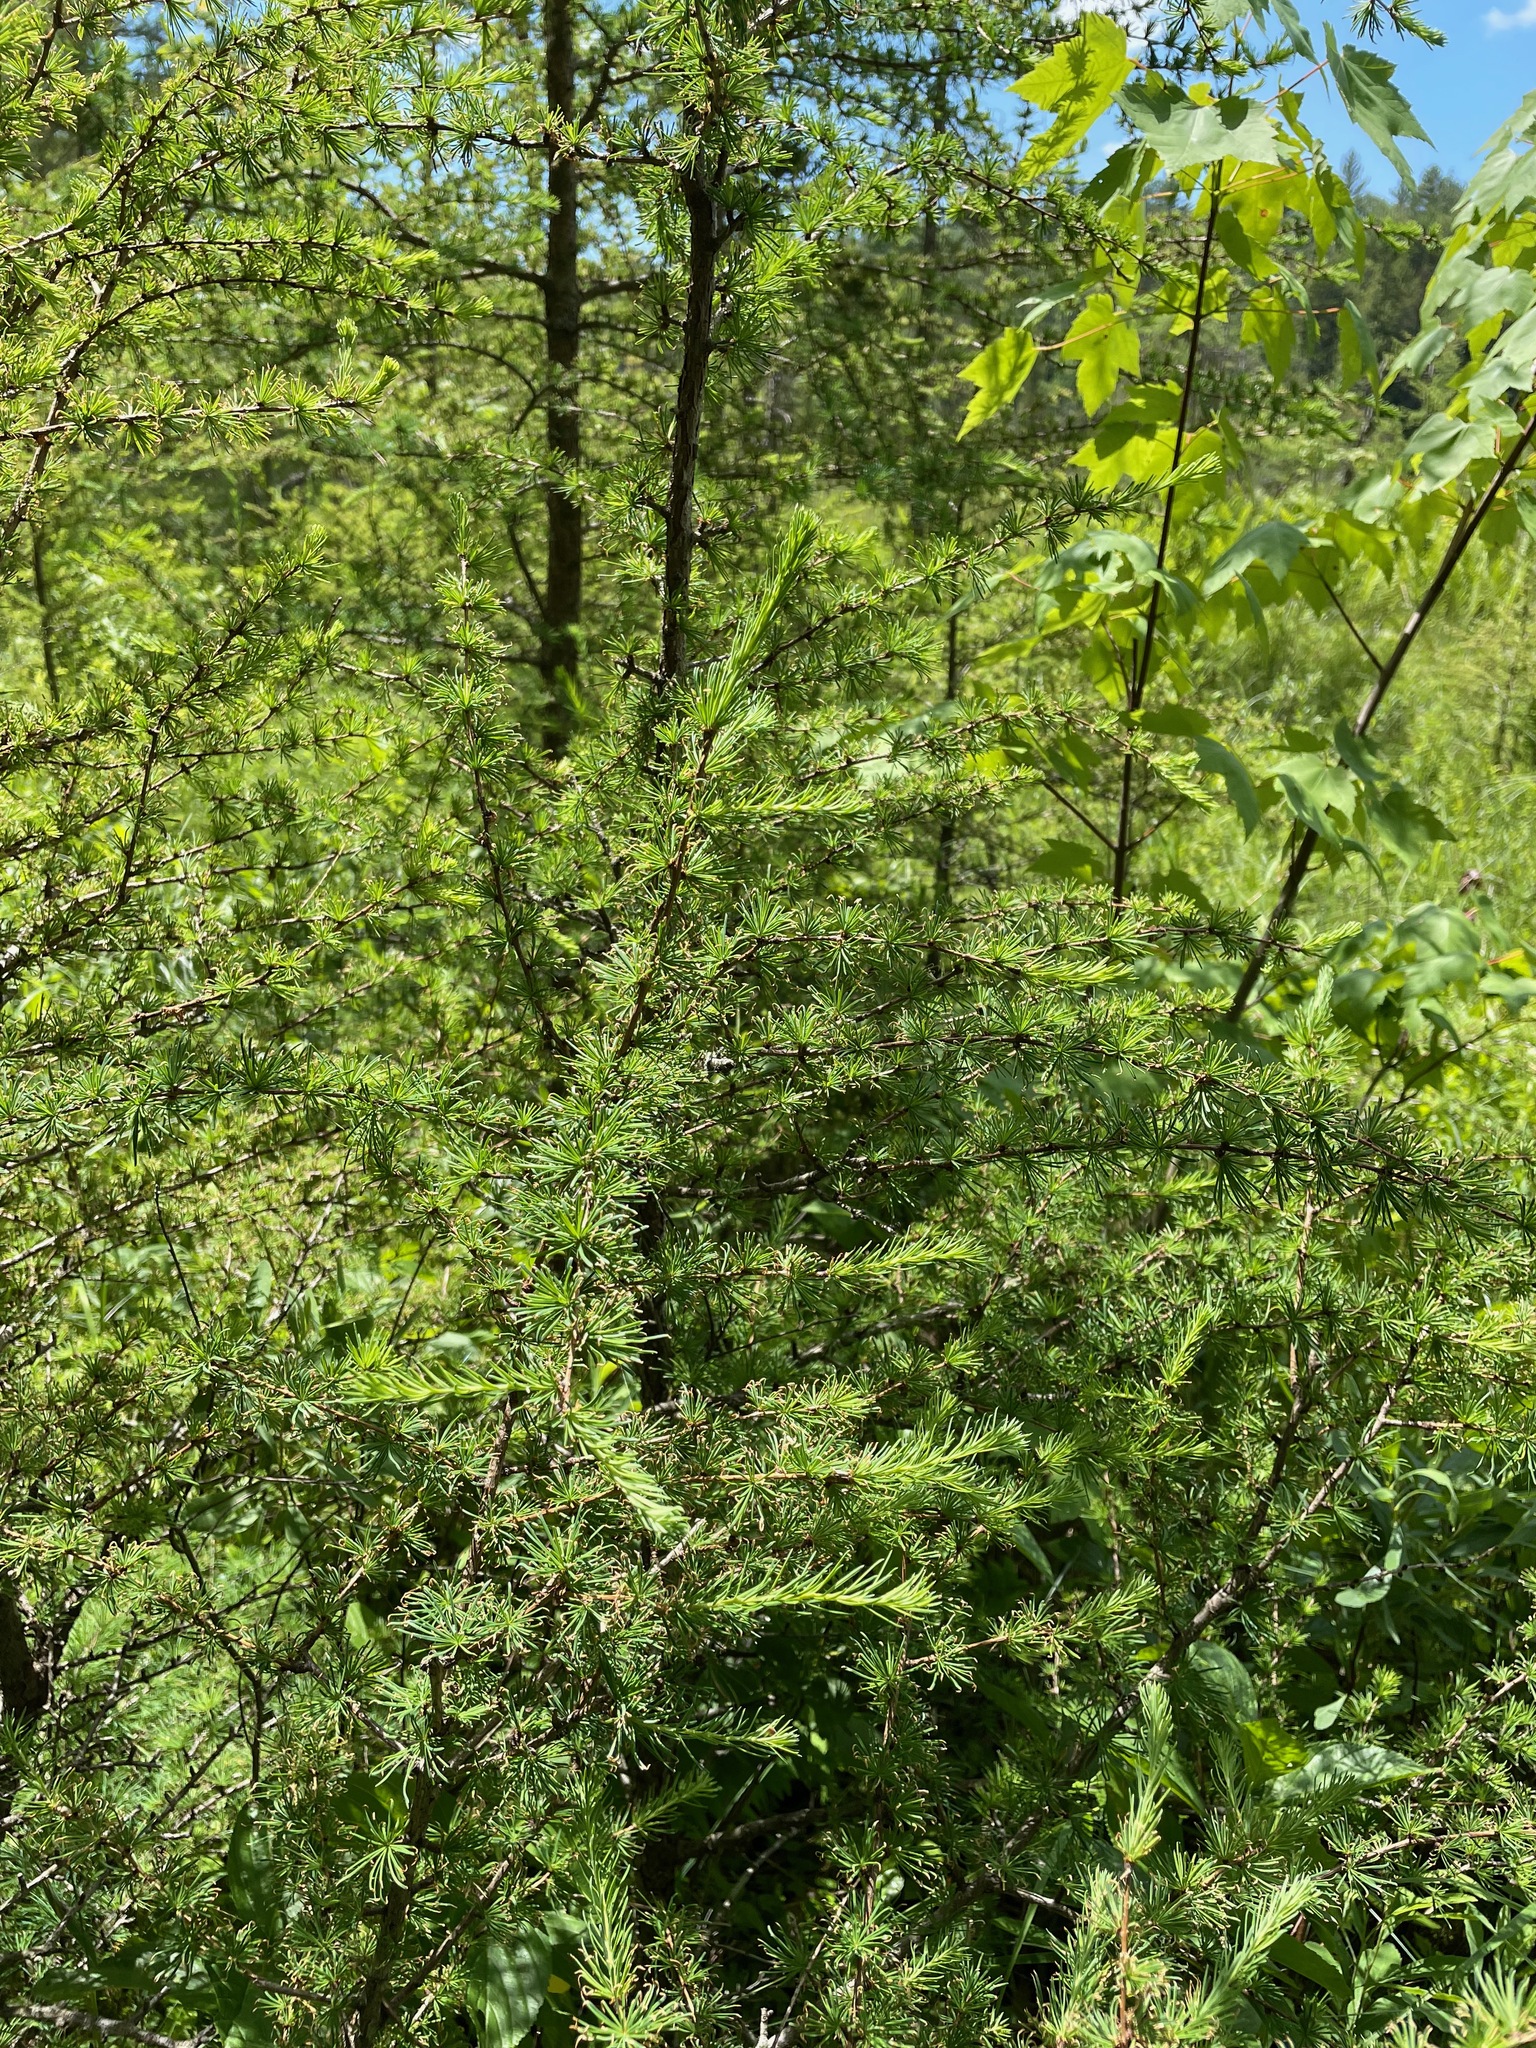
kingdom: Plantae
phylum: Tracheophyta
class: Pinopsida
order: Pinales
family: Pinaceae
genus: Larix
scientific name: Larix laricina
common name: American larch
